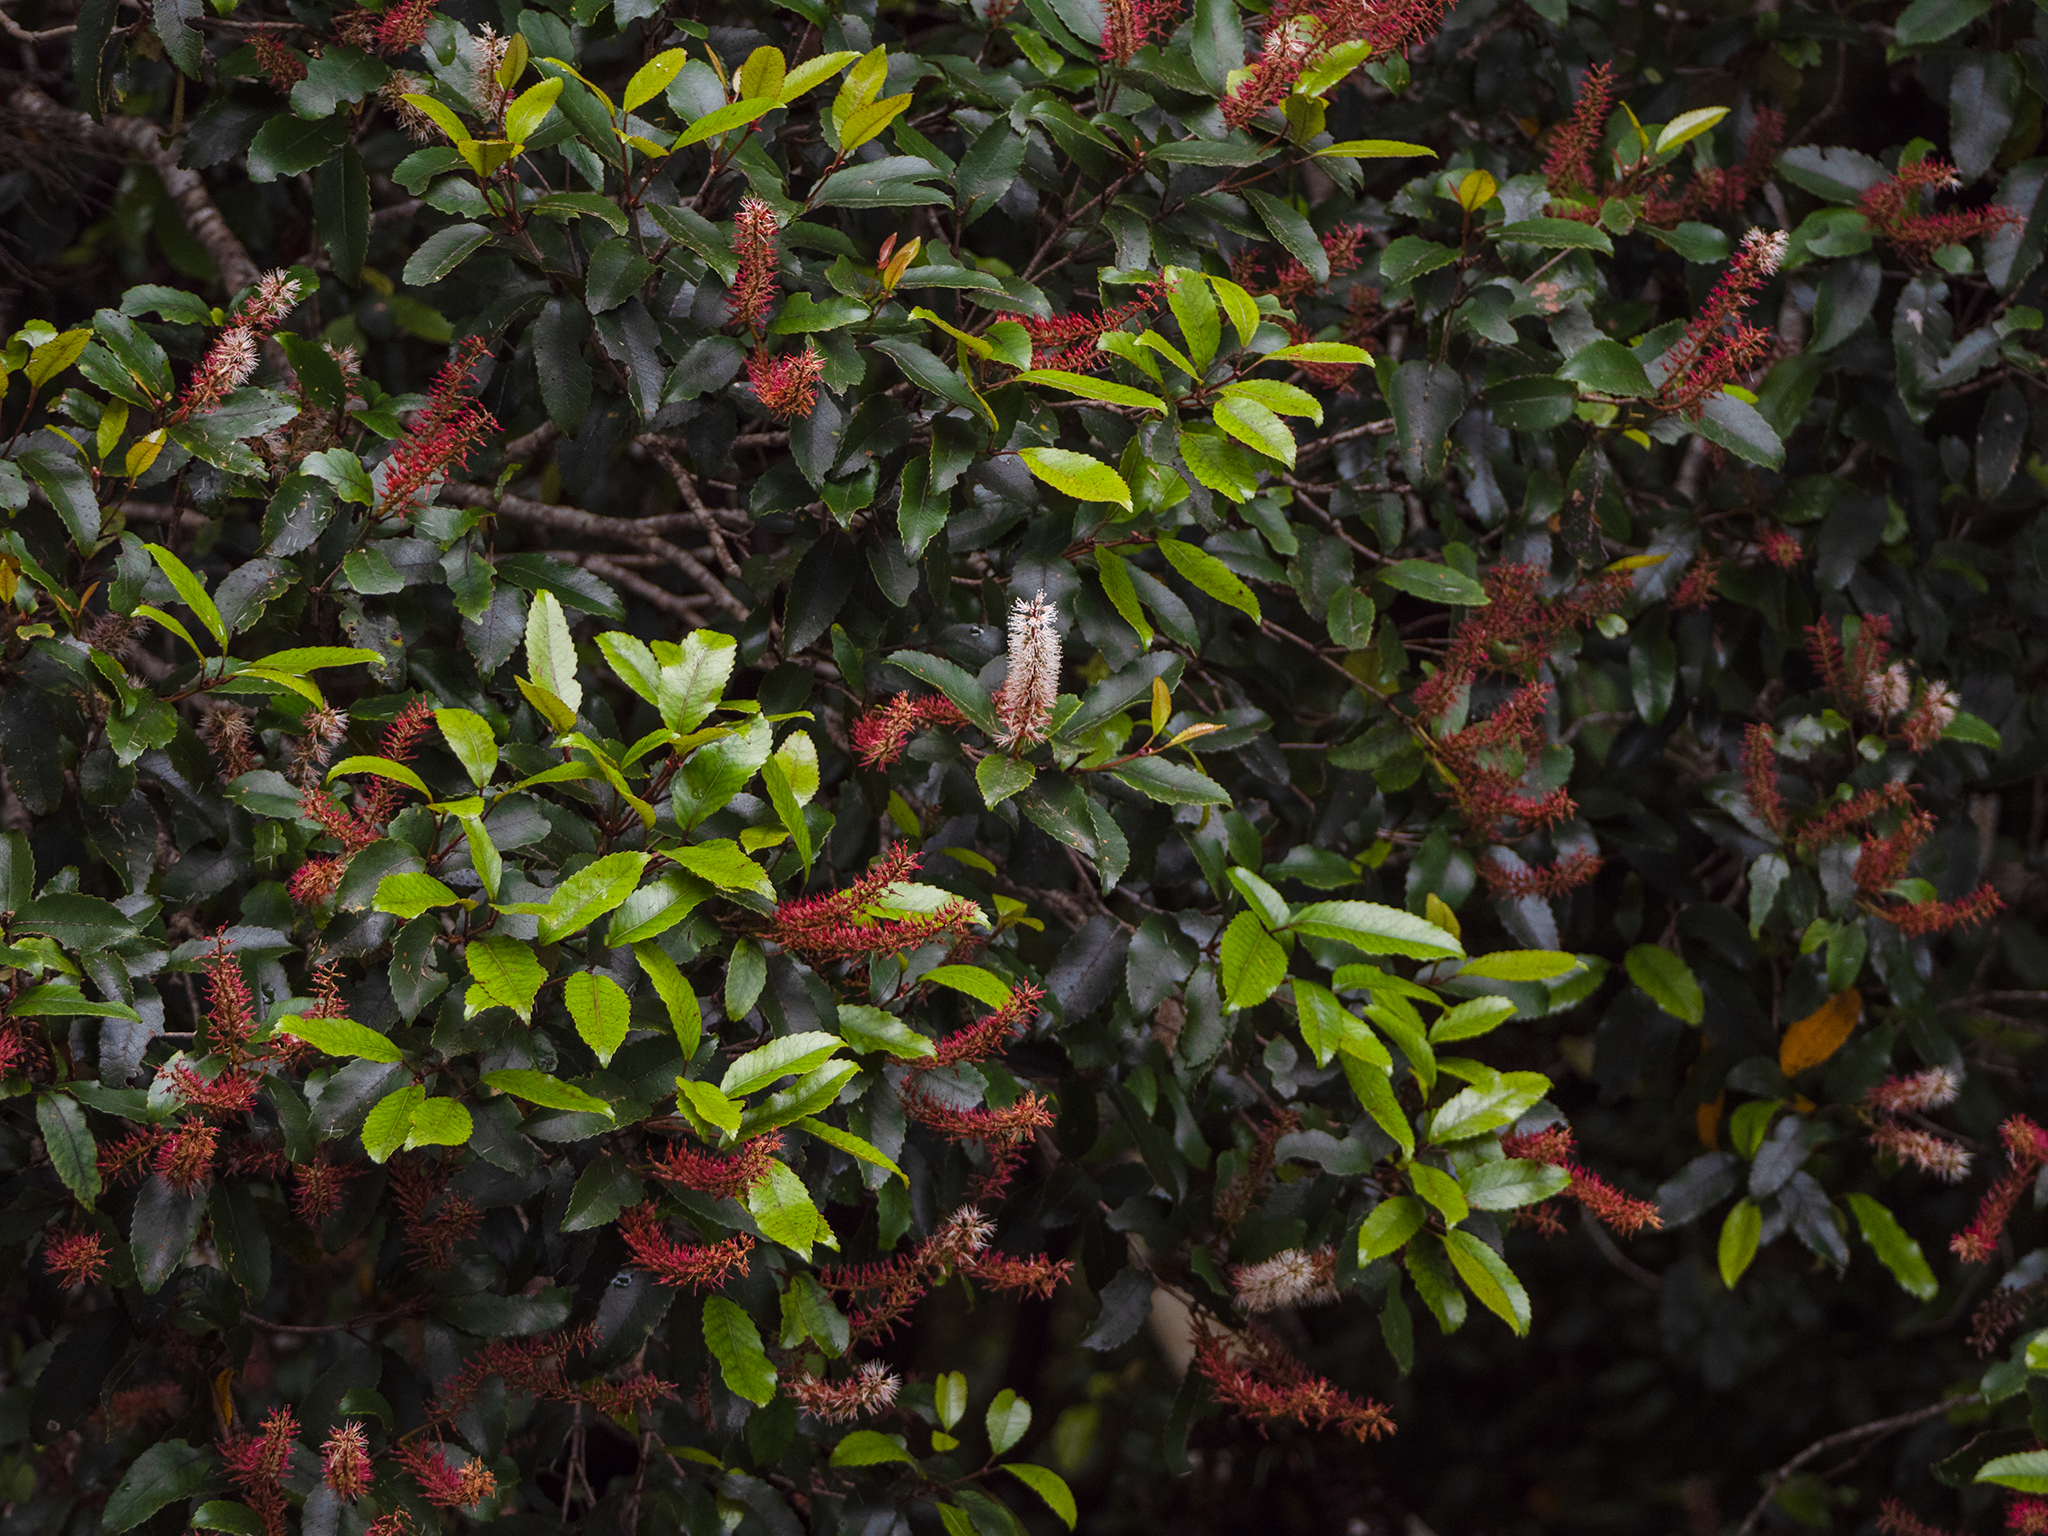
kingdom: Plantae
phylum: Tracheophyta
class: Magnoliopsida
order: Oxalidales
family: Cunoniaceae
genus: Pterophylla
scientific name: Pterophylla racemosa
